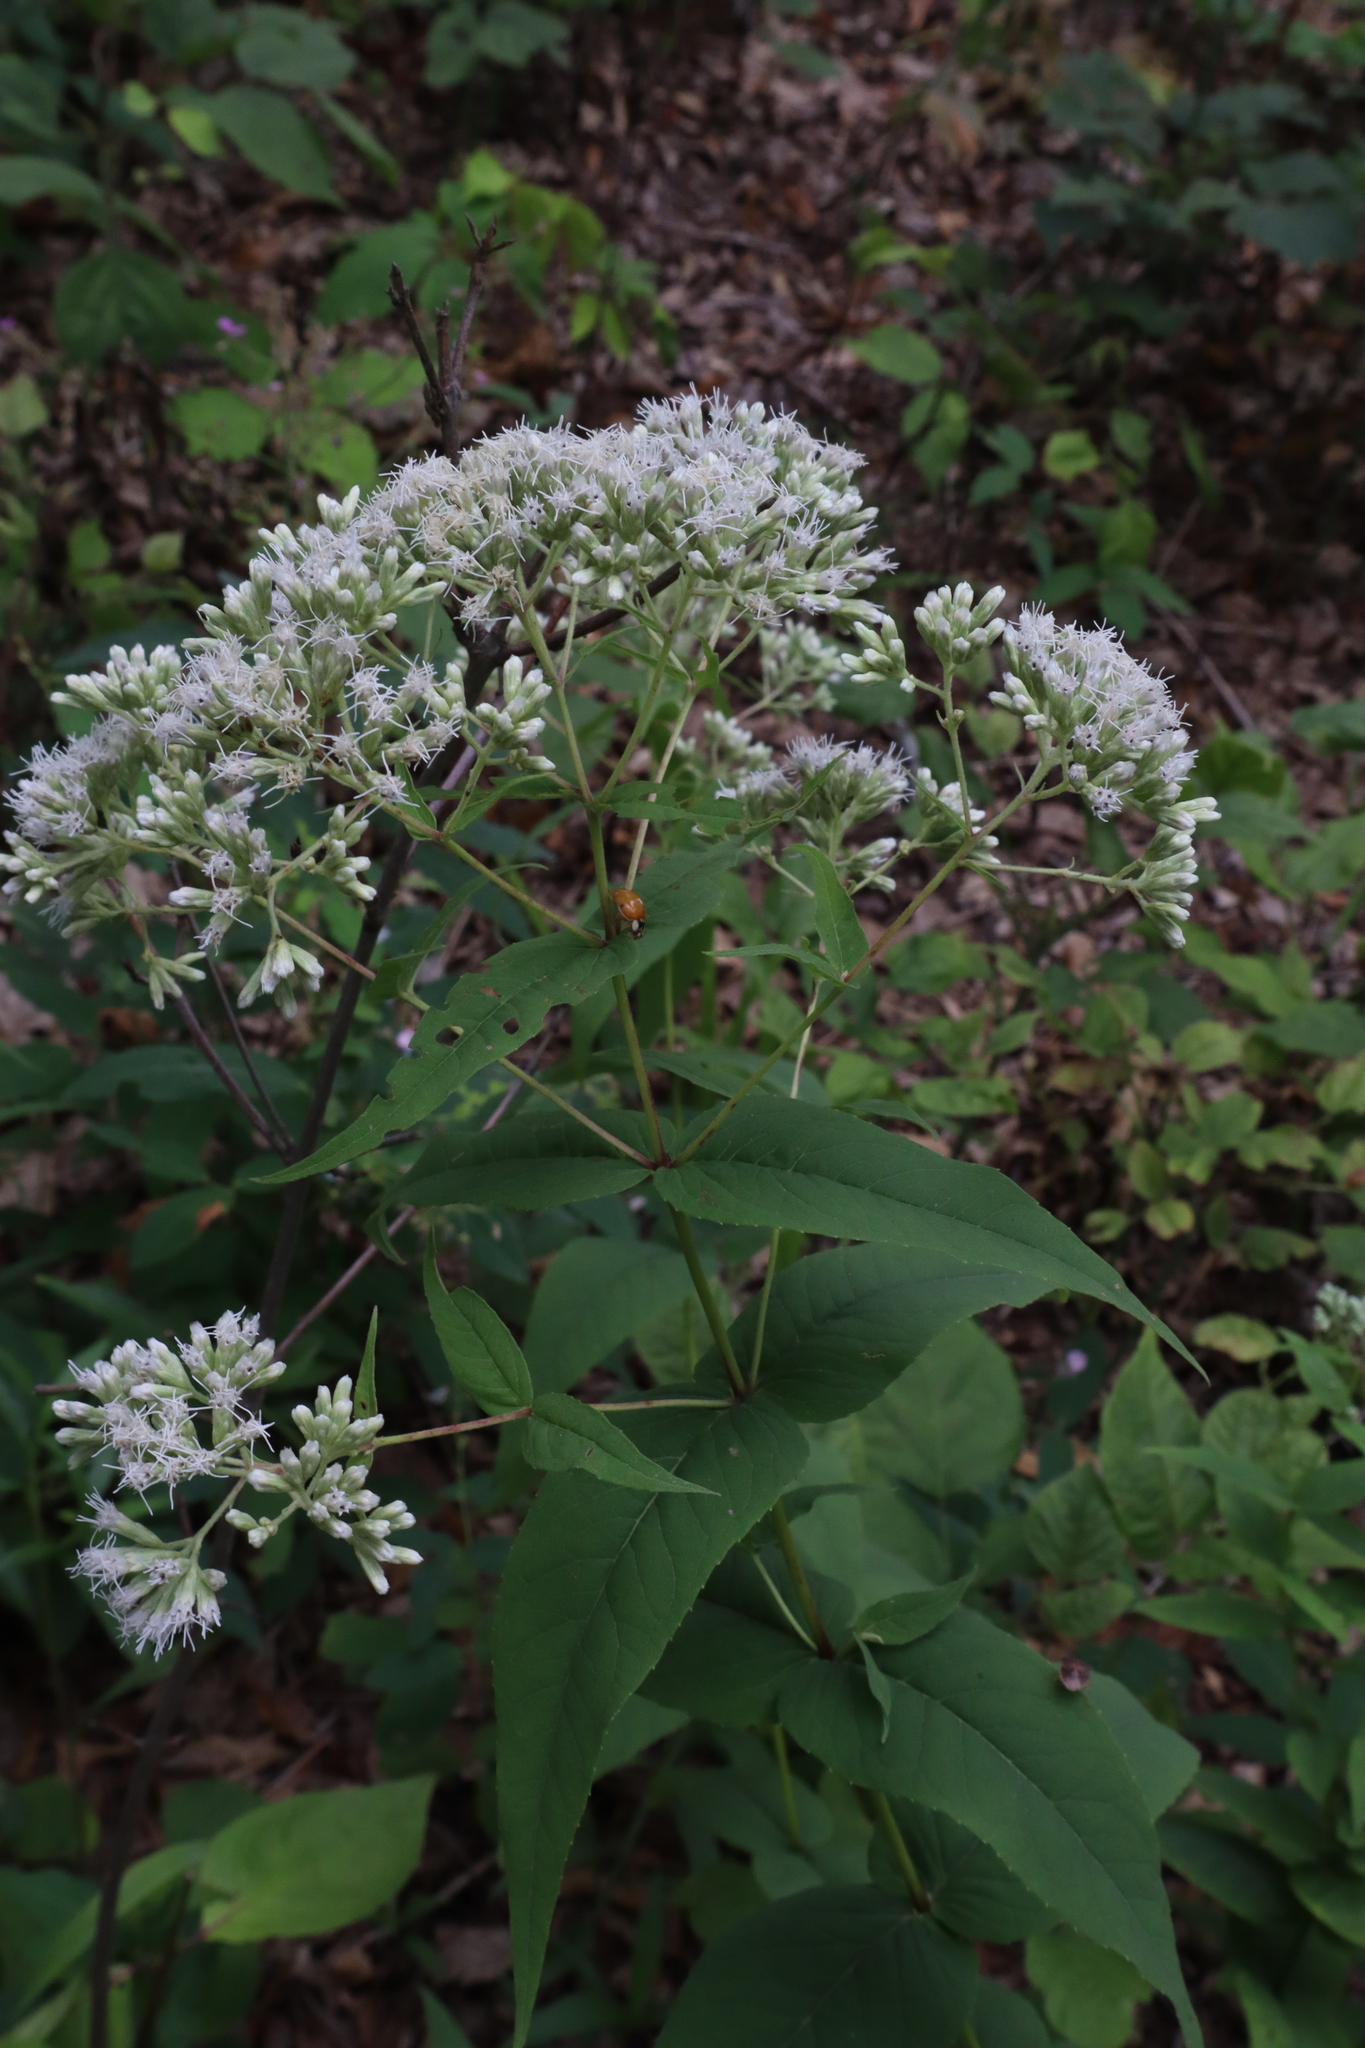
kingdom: Plantae
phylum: Tracheophyta
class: Magnoliopsida
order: Asterales
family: Asteraceae
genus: Eupatorium
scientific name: Eupatorium sessilifolium
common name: Upland boneset
